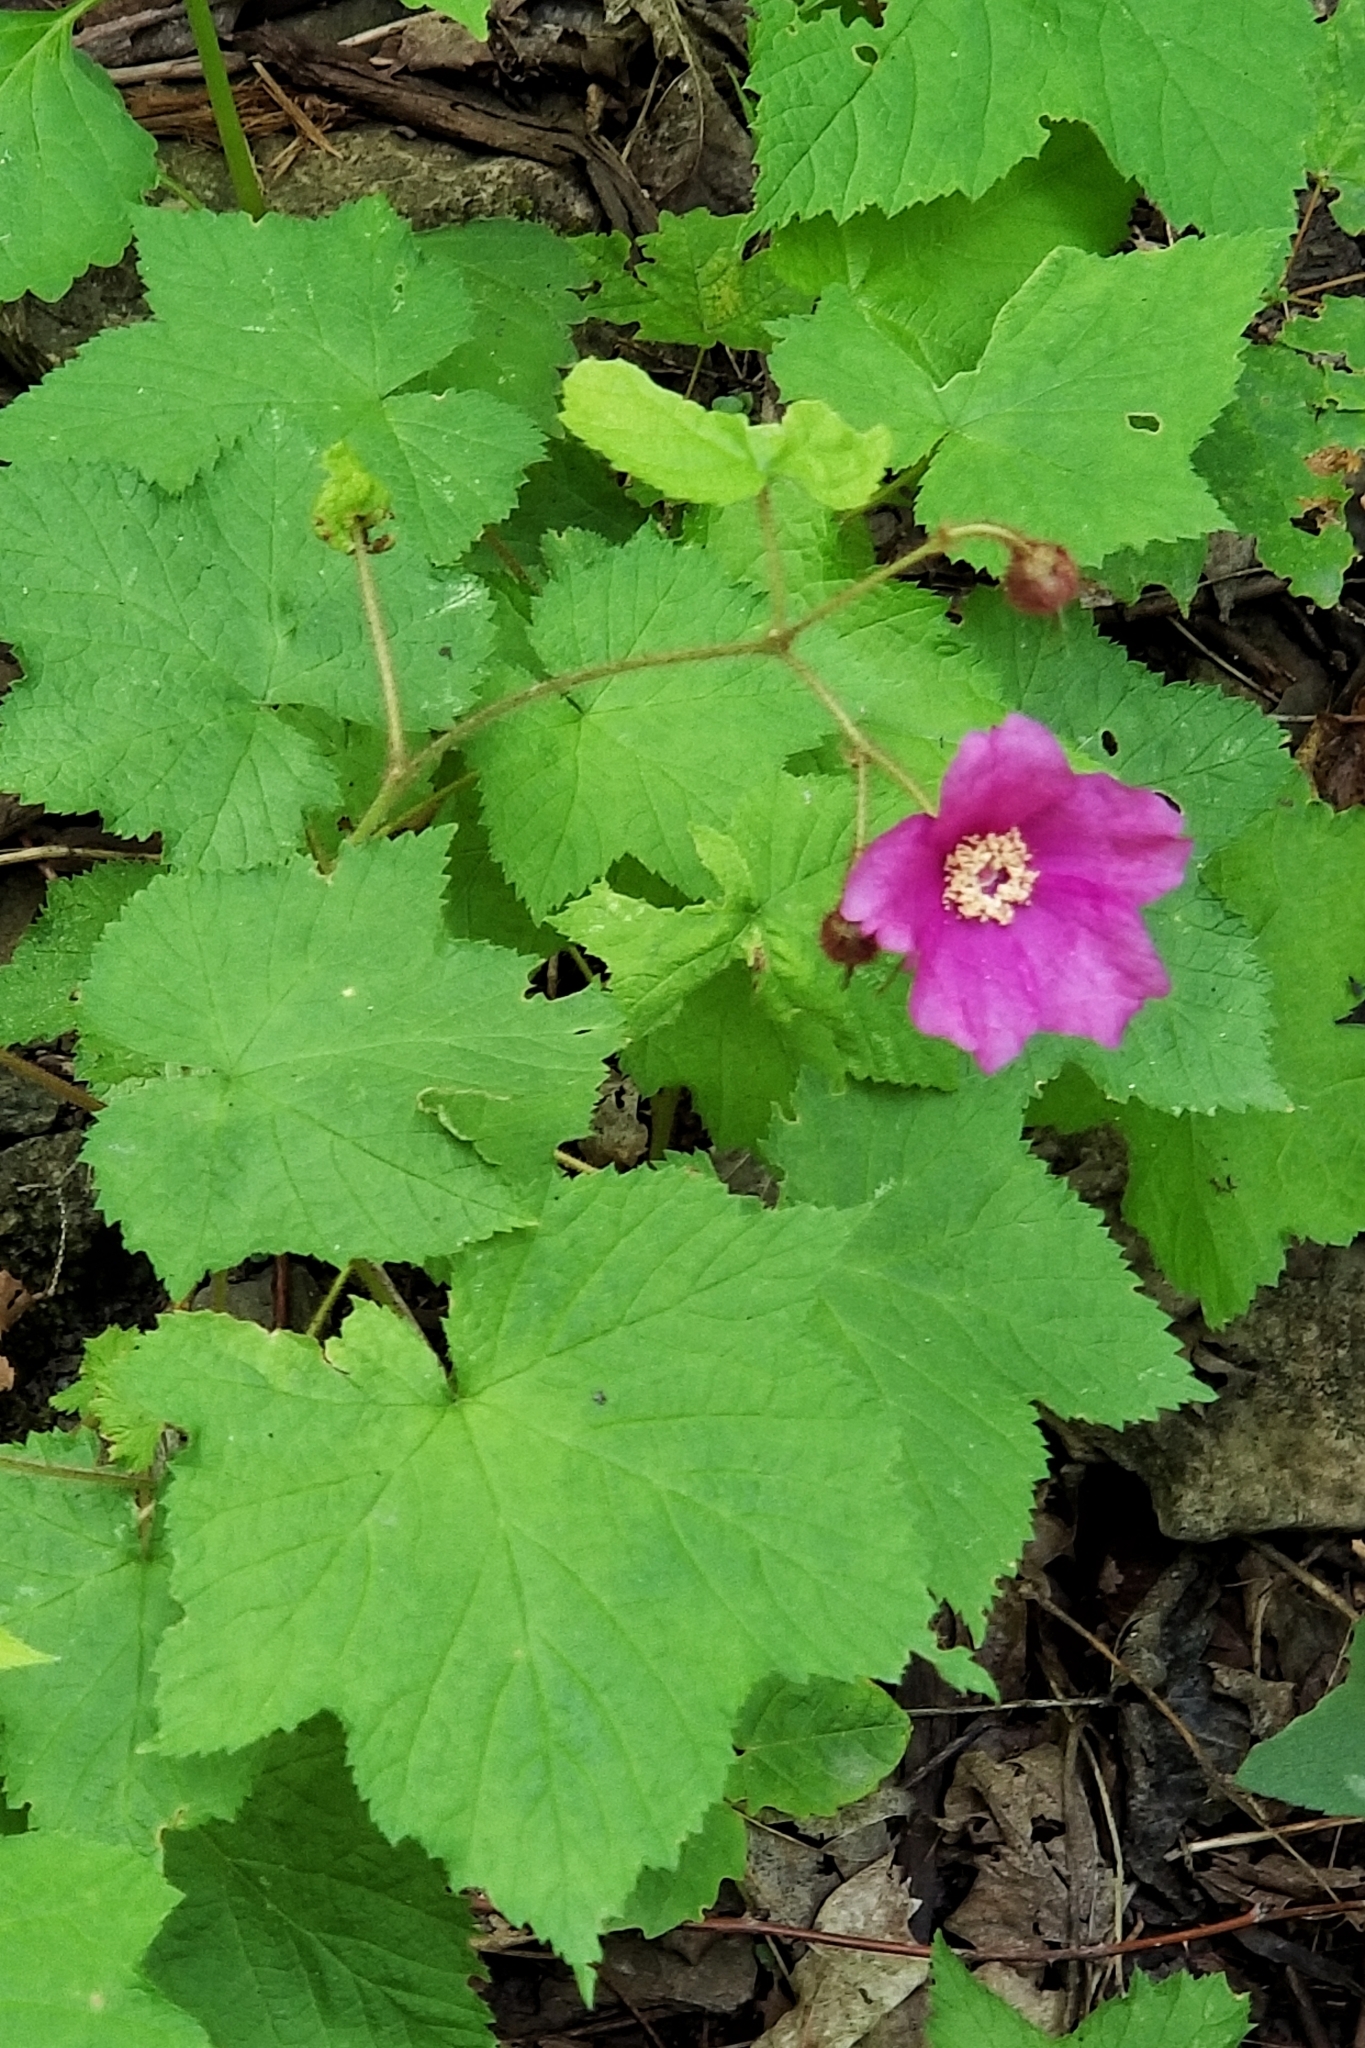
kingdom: Plantae
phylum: Tracheophyta
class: Magnoliopsida
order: Rosales
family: Rosaceae
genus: Rubus
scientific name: Rubus odoratus
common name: Purple-flowered raspberry
